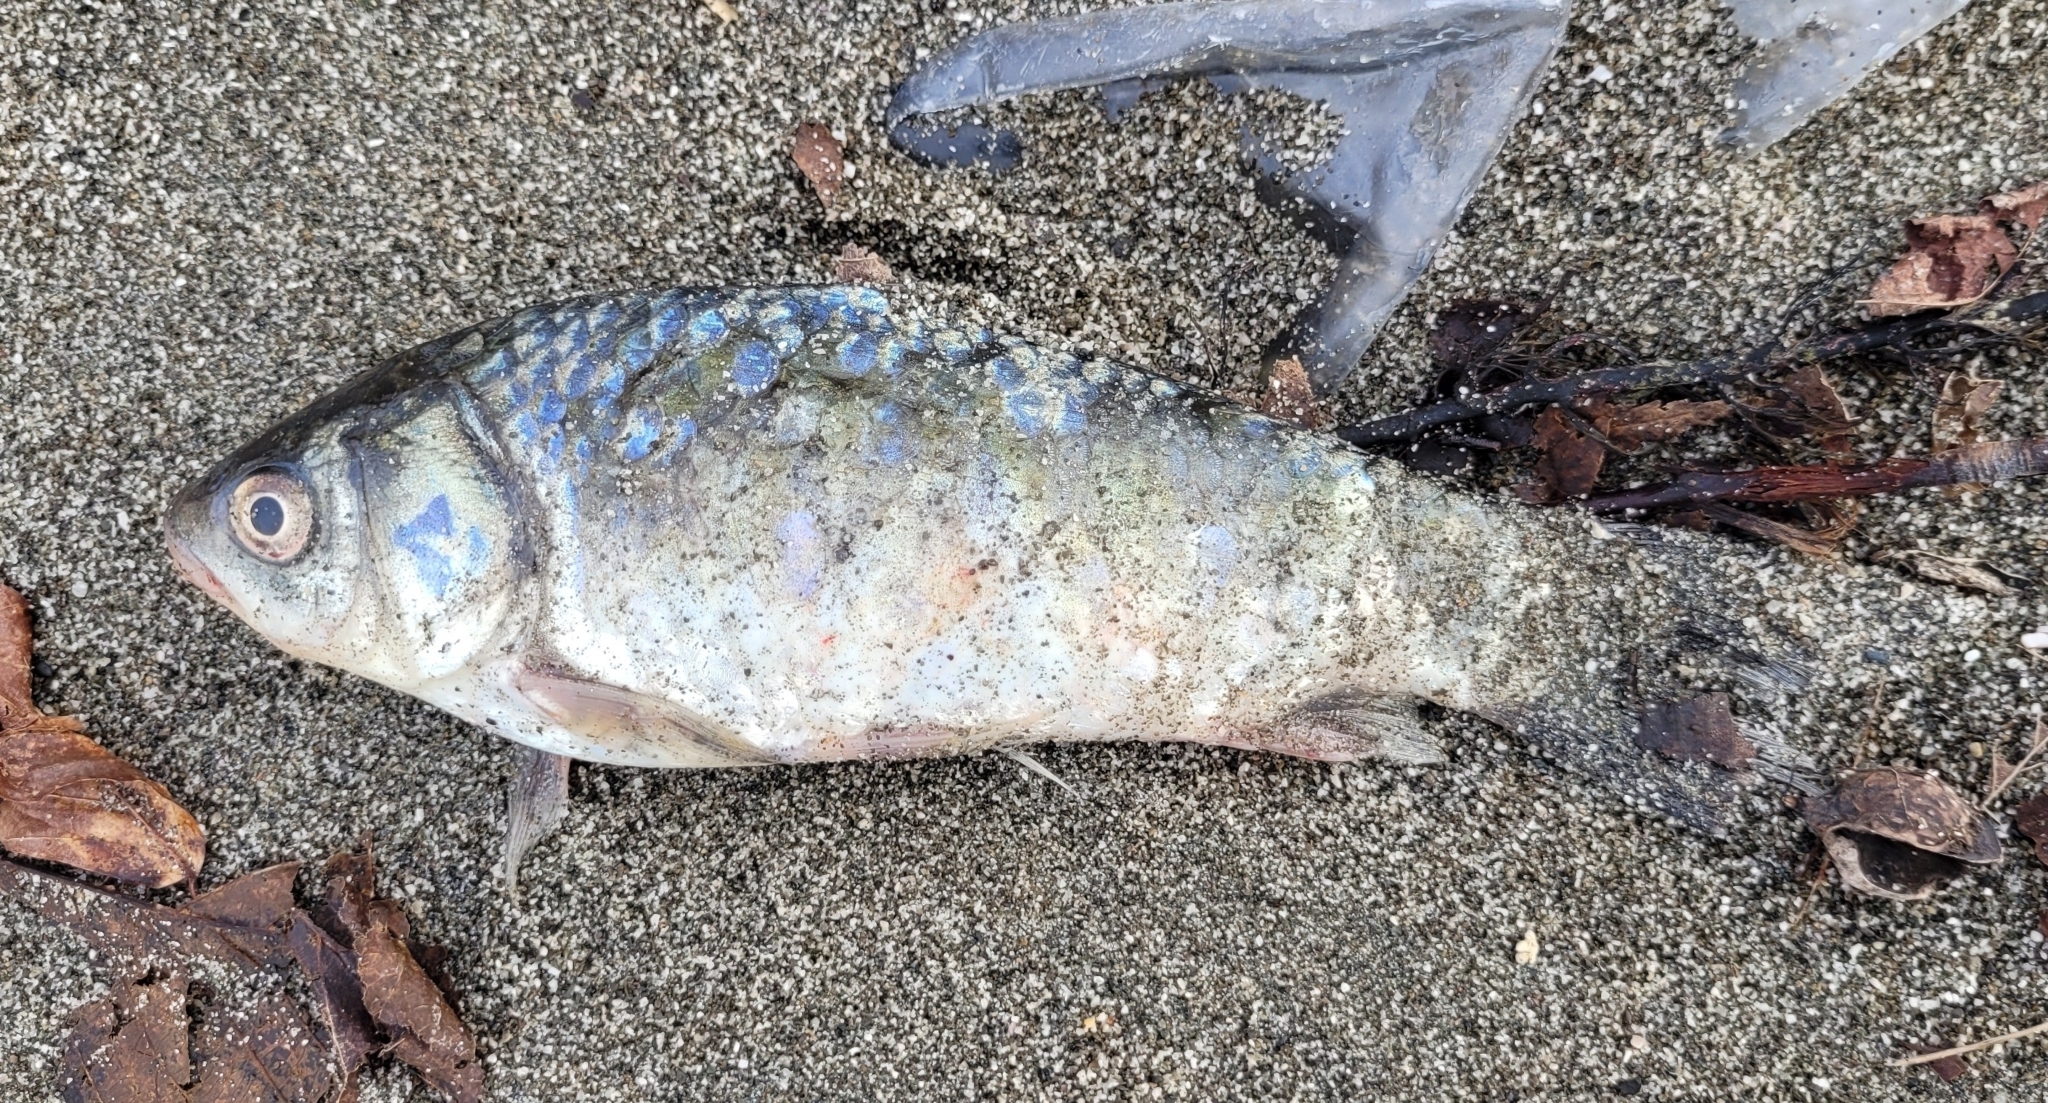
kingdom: Animalia
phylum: Chordata
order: Cypriniformes
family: Cyprinidae
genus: Carassius
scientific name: Carassius gibelio
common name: Prussian carp
